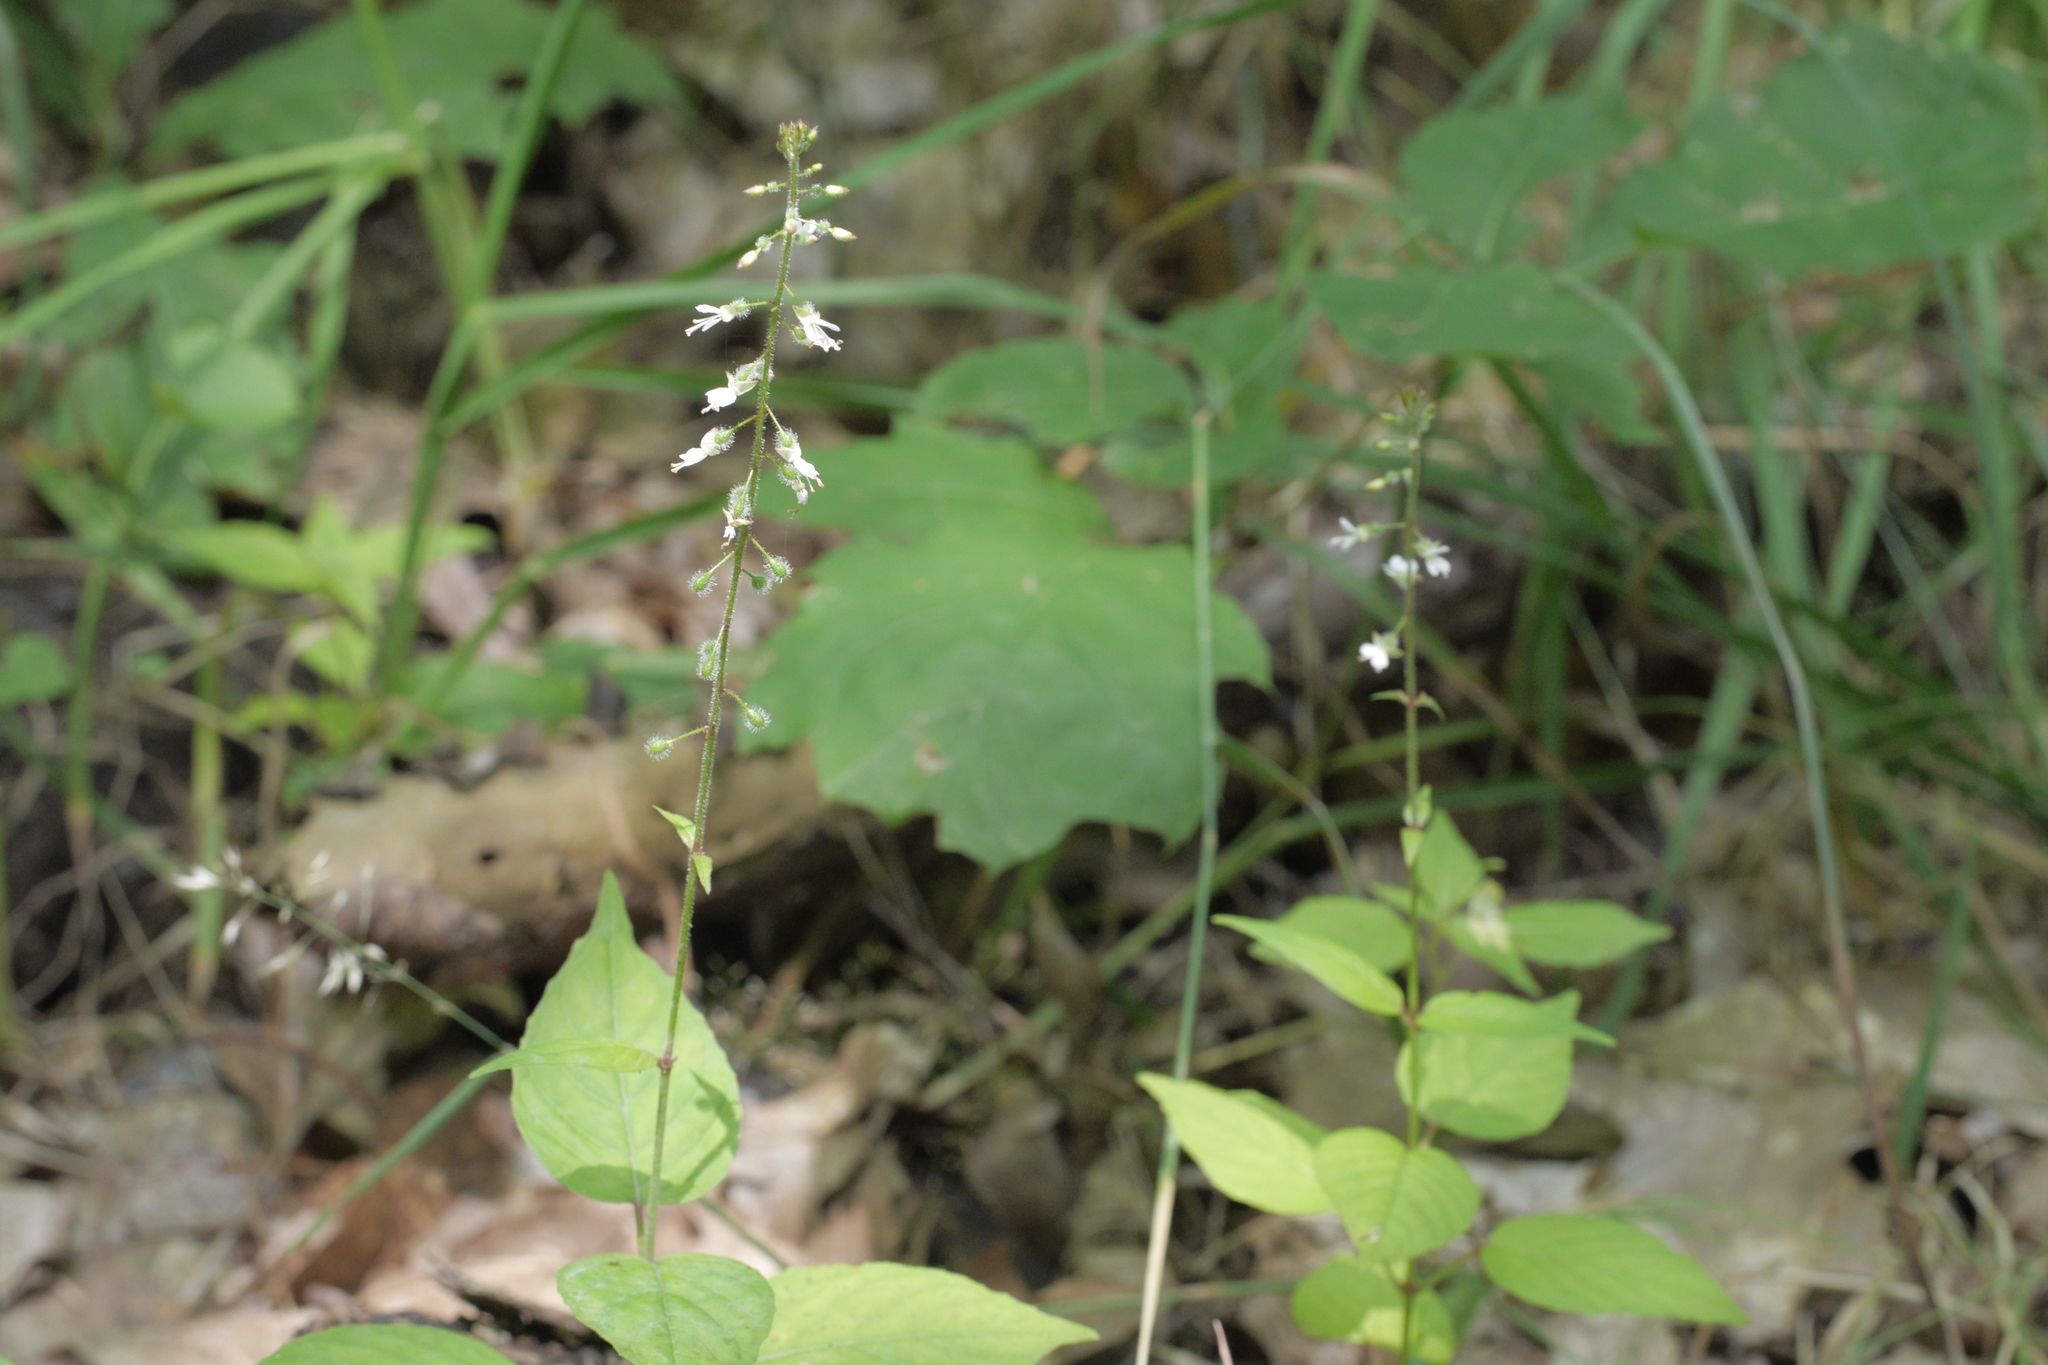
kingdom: Plantae
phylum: Tracheophyta
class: Magnoliopsida
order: Myrtales
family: Onagraceae
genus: Circaea
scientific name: Circaea lutetiana
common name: Enchanter's-nightshade
